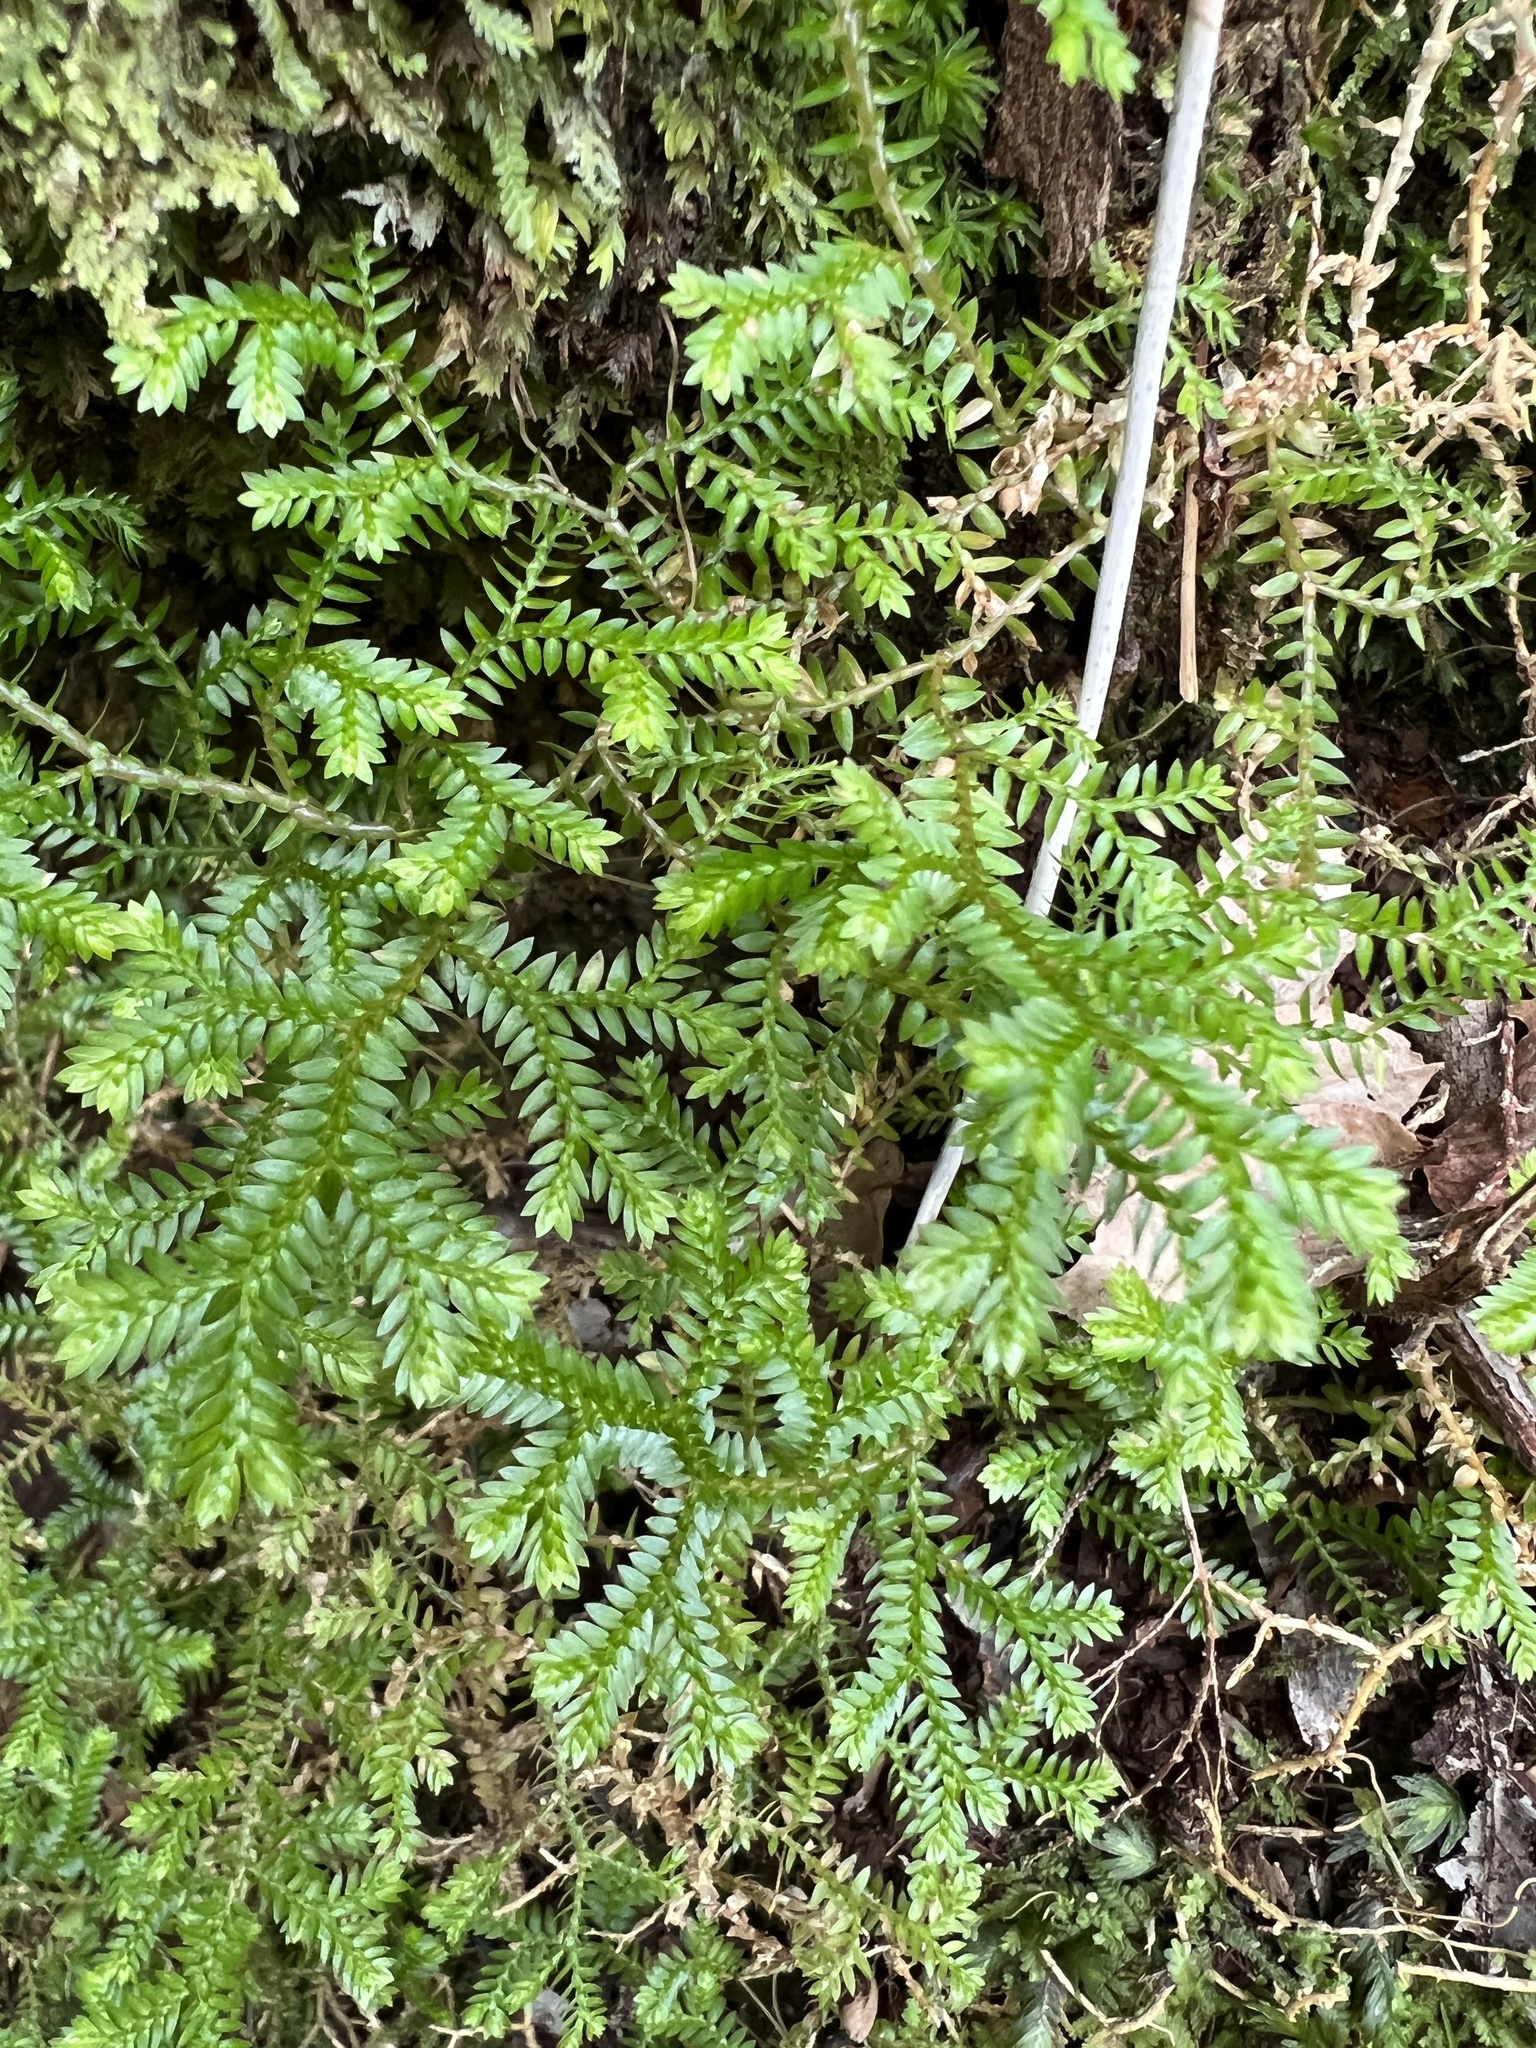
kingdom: Plantae
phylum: Tracheophyta
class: Lycopodiopsida
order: Selaginellales
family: Selaginellaceae
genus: Selaginella
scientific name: Selaginella kraussiana
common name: Krauss' spikemoss
